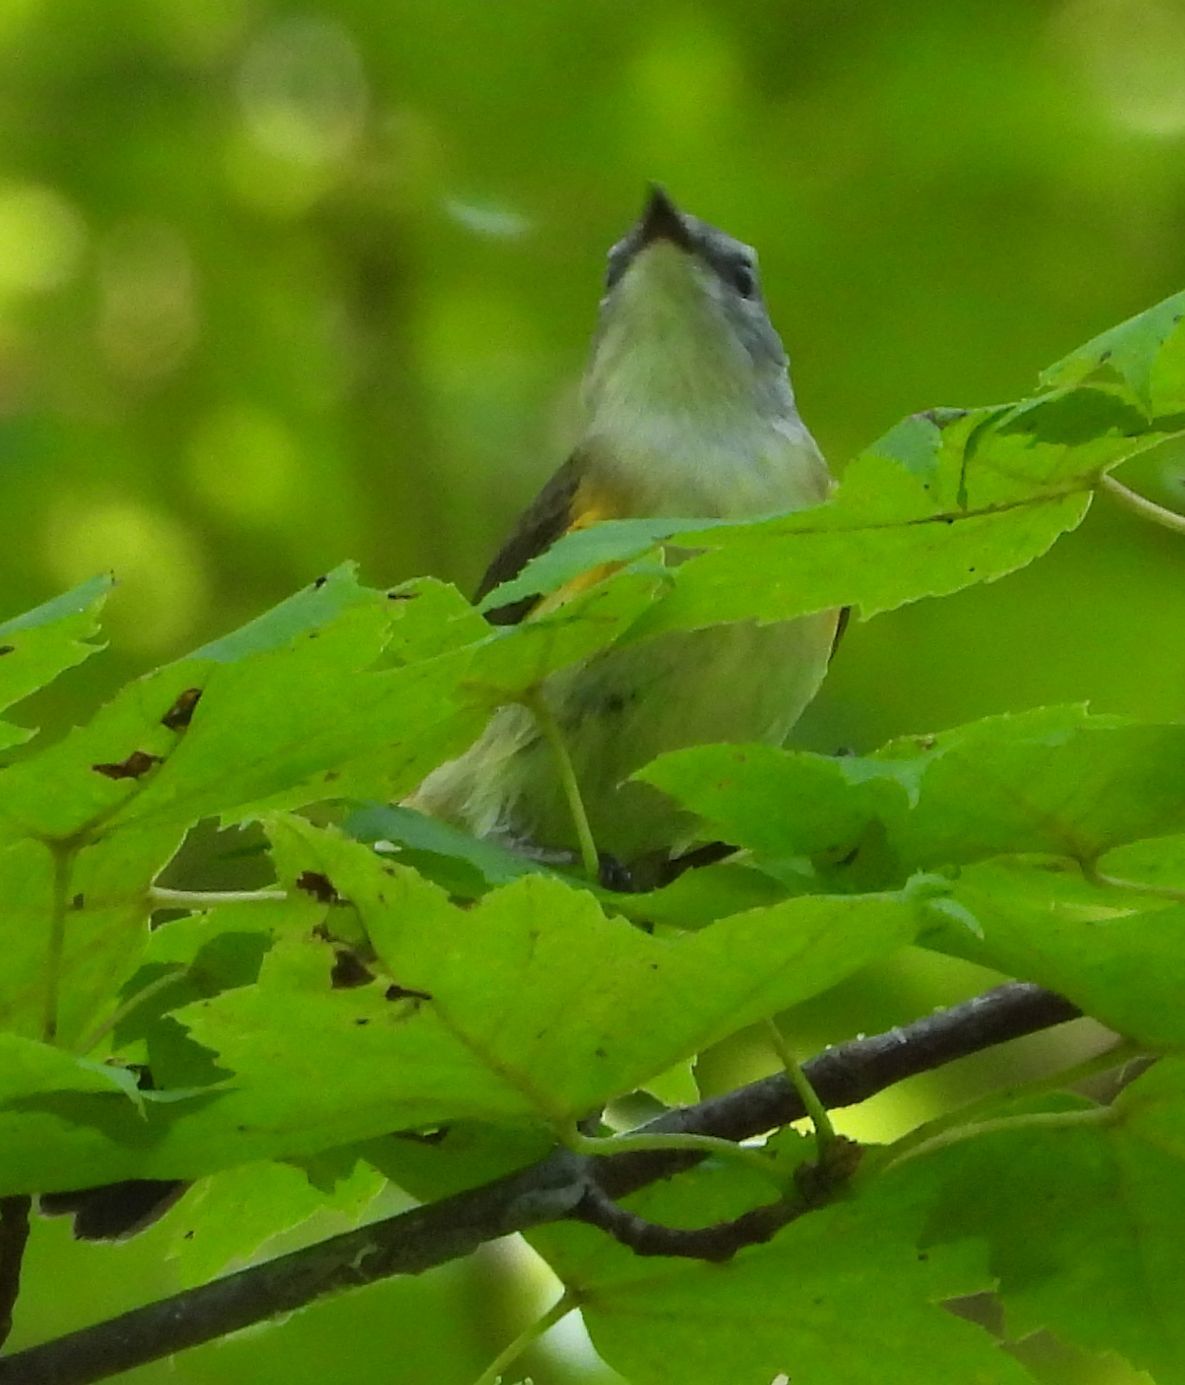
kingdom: Animalia
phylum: Chordata
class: Aves
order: Passeriformes
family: Parulidae
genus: Setophaga
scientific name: Setophaga ruticilla
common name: American redstart
